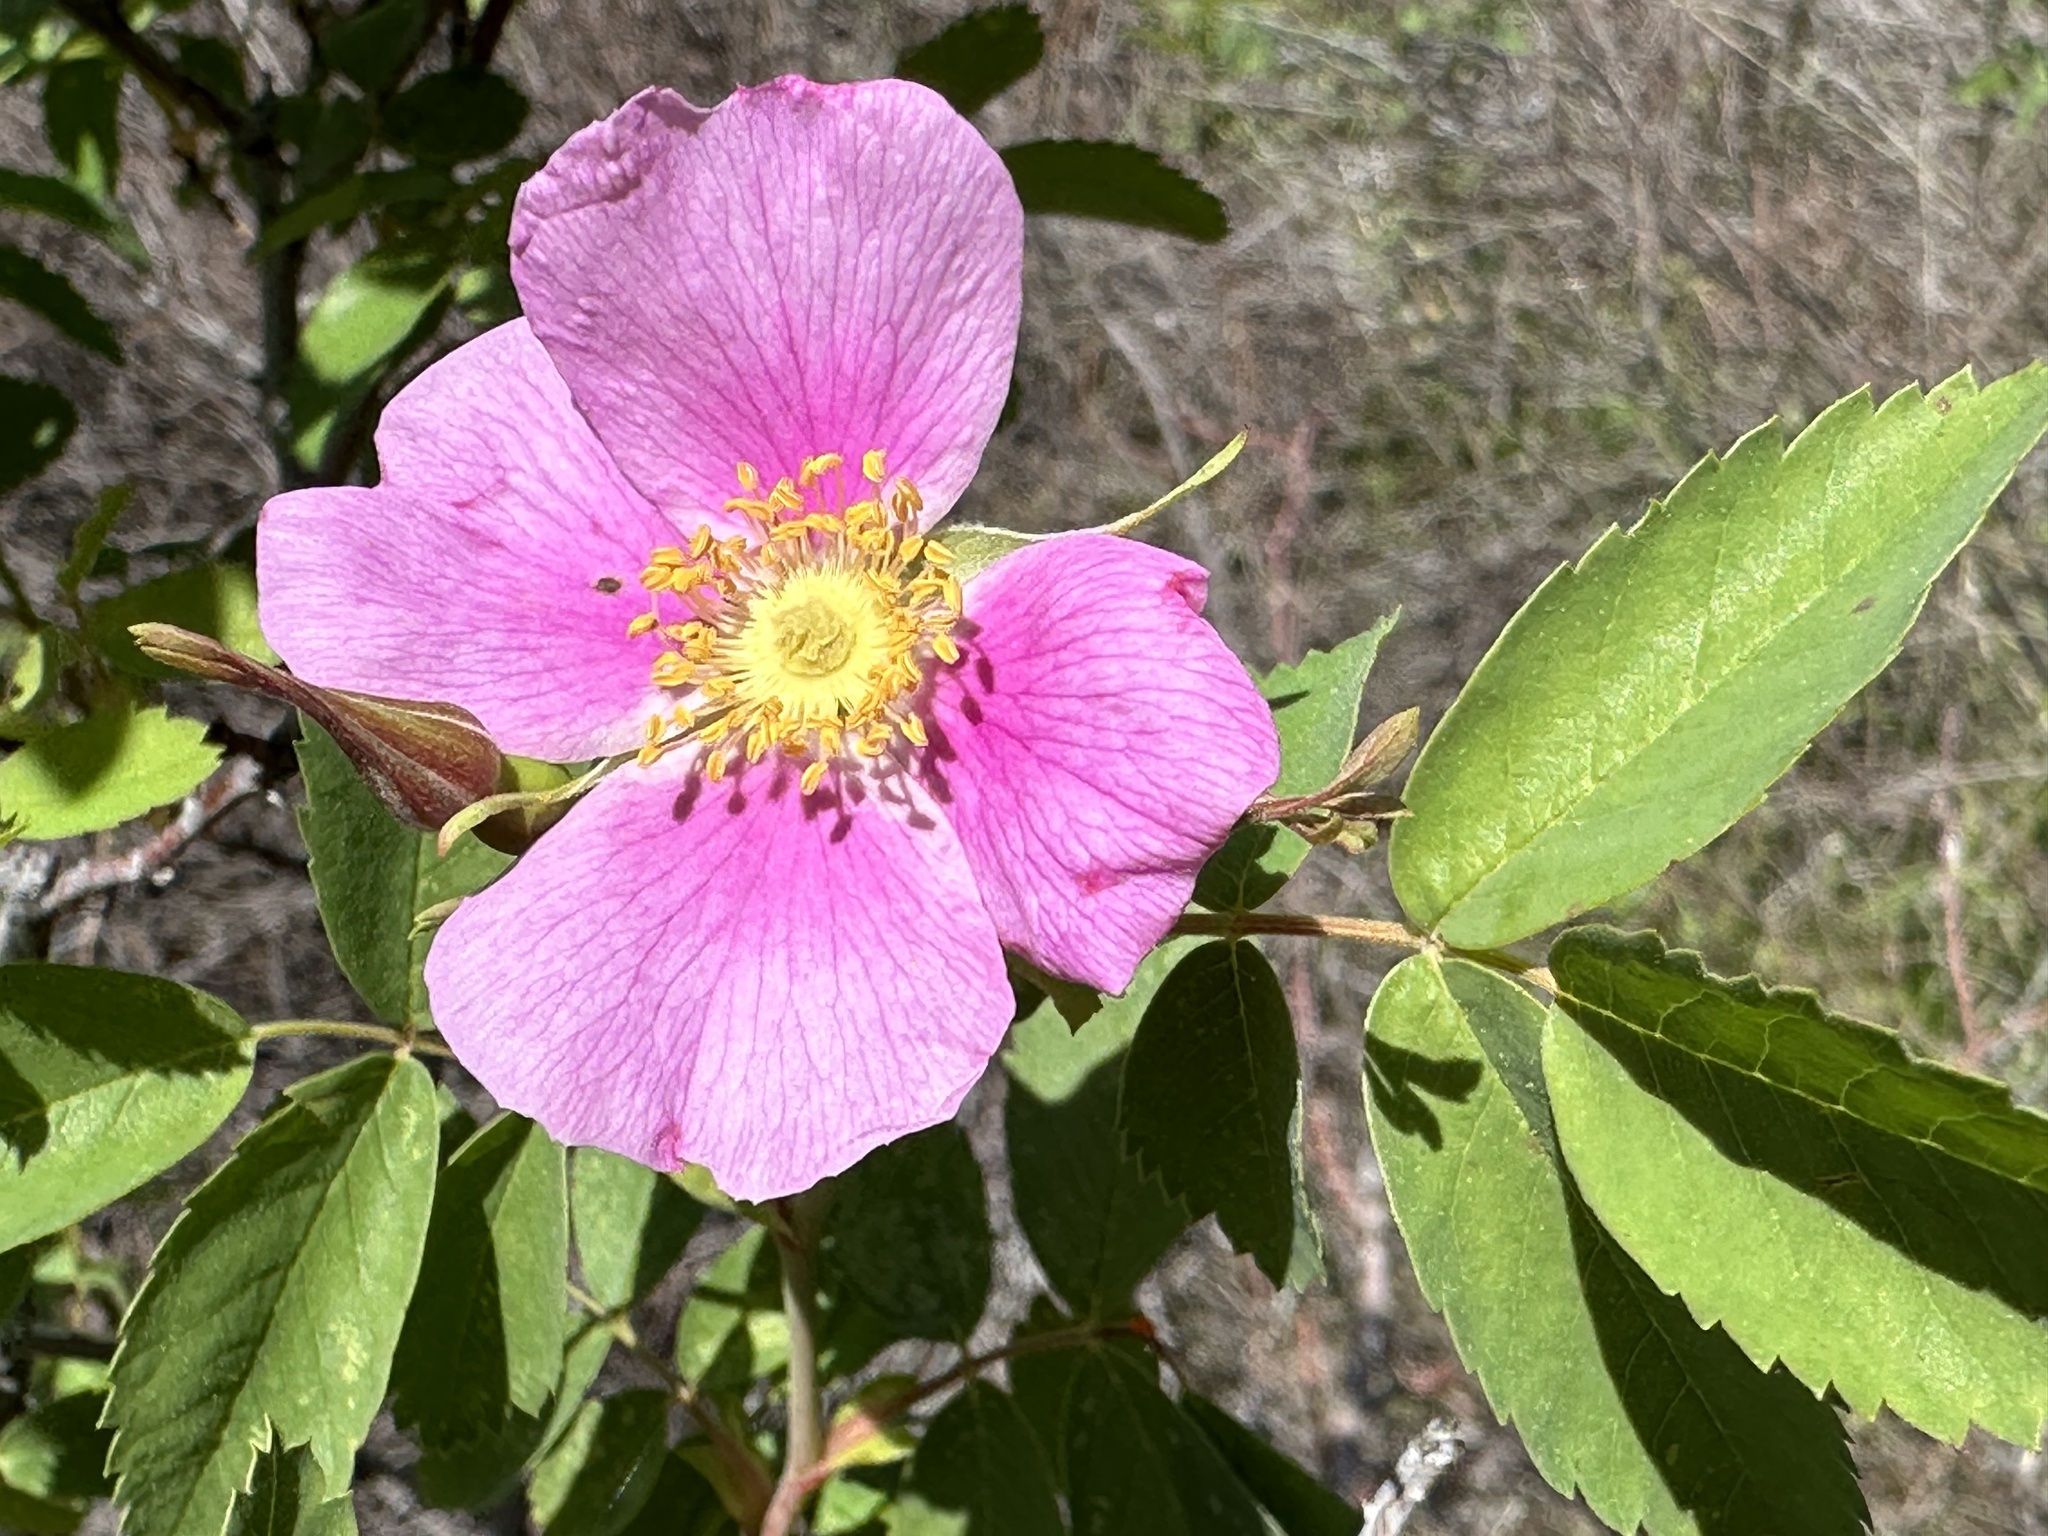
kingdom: Plantae
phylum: Tracheophyta
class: Magnoliopsida
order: Rosales
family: Rosaceae
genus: Rosa
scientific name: Rosa woodsii
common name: Woods's rose
